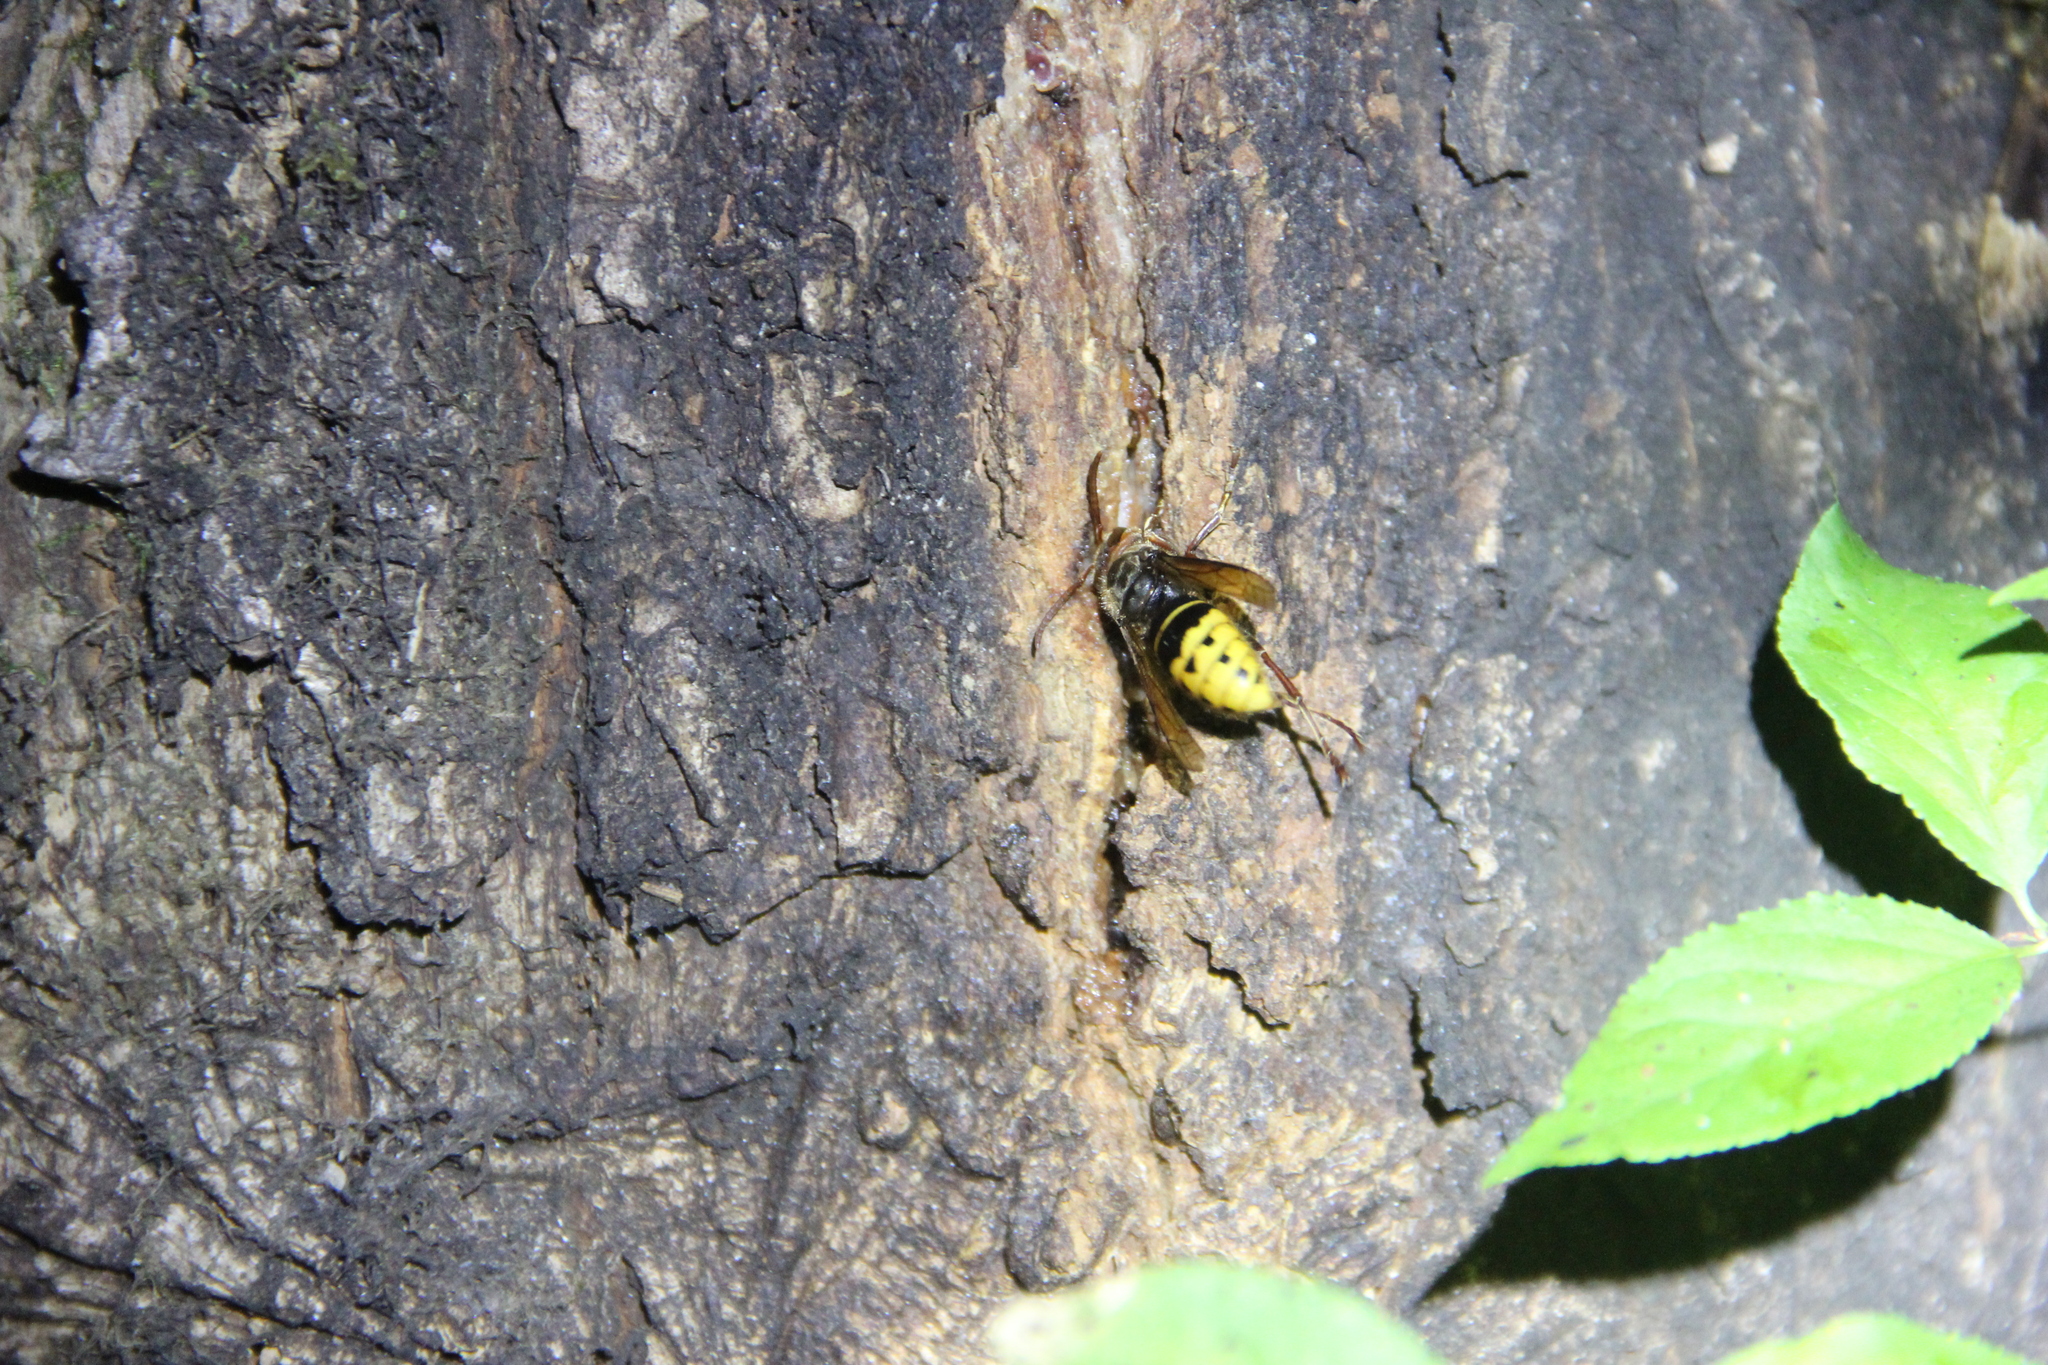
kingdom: Animalia
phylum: Arthropoda
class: Insecta
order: Hymenoptera
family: Vespidae
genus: Vespa
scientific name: Vespa crabro
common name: Hornet
